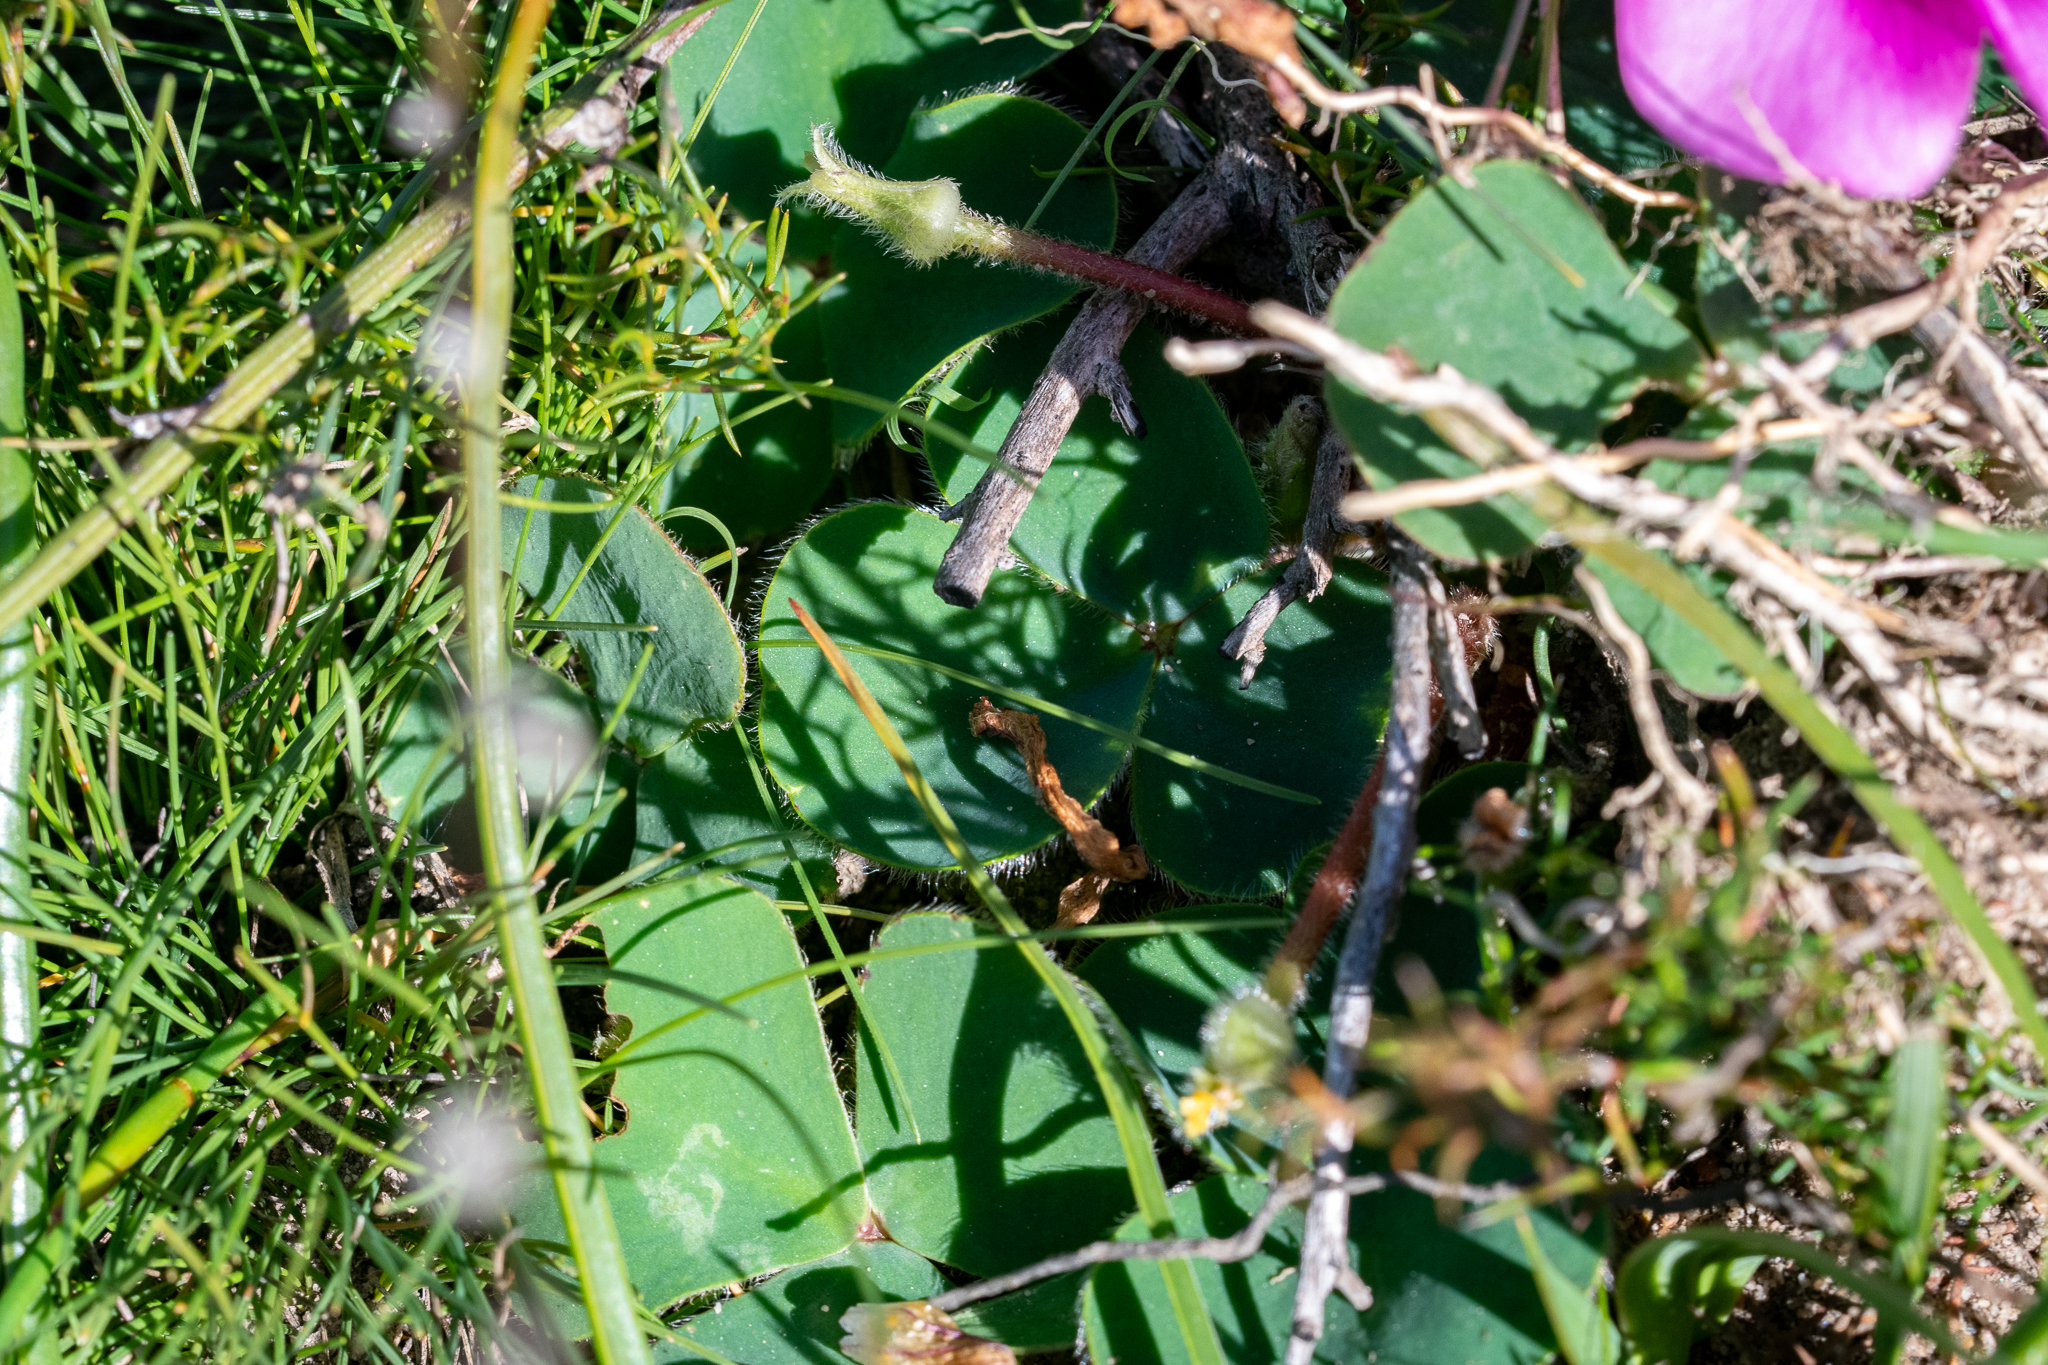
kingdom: Plantae
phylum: Tracheophyta
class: Magnoliopsida
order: Oxalidales
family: Oxalidaceae
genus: Oxalis
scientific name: Oxalis purpurea
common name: Purple woodsorrel
